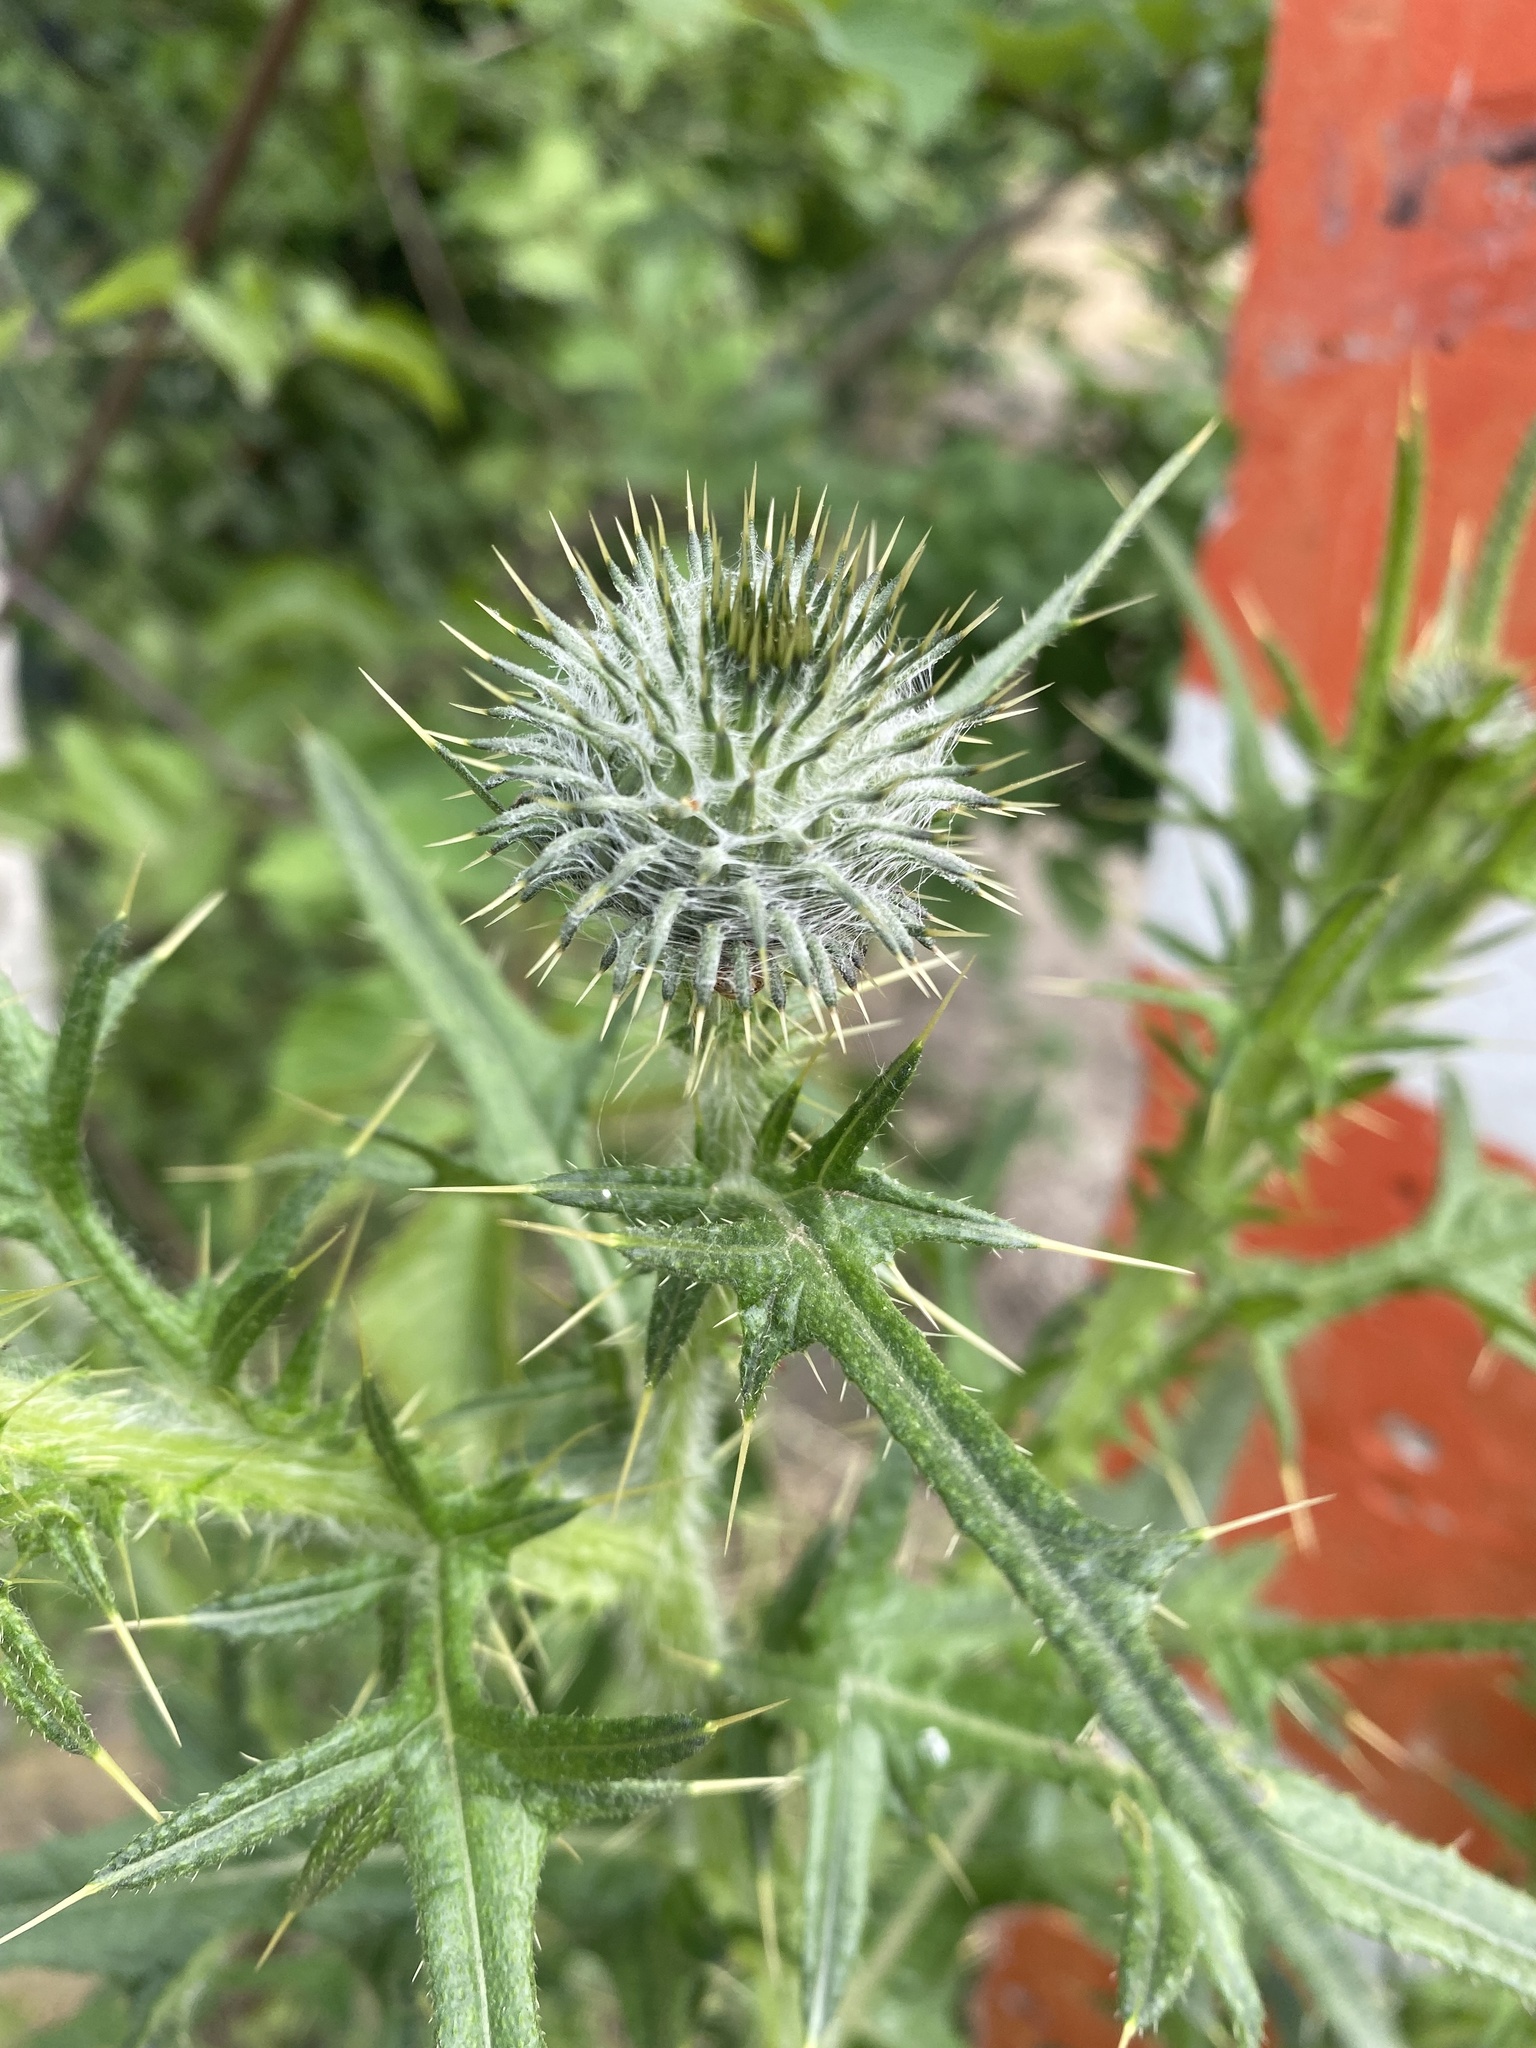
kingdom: Plantae
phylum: Tracheophyta
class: Magnoliopsida
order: Asterales
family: Asteraceae
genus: Cirsium
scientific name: Cirsium vulgare
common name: Bull thistle
